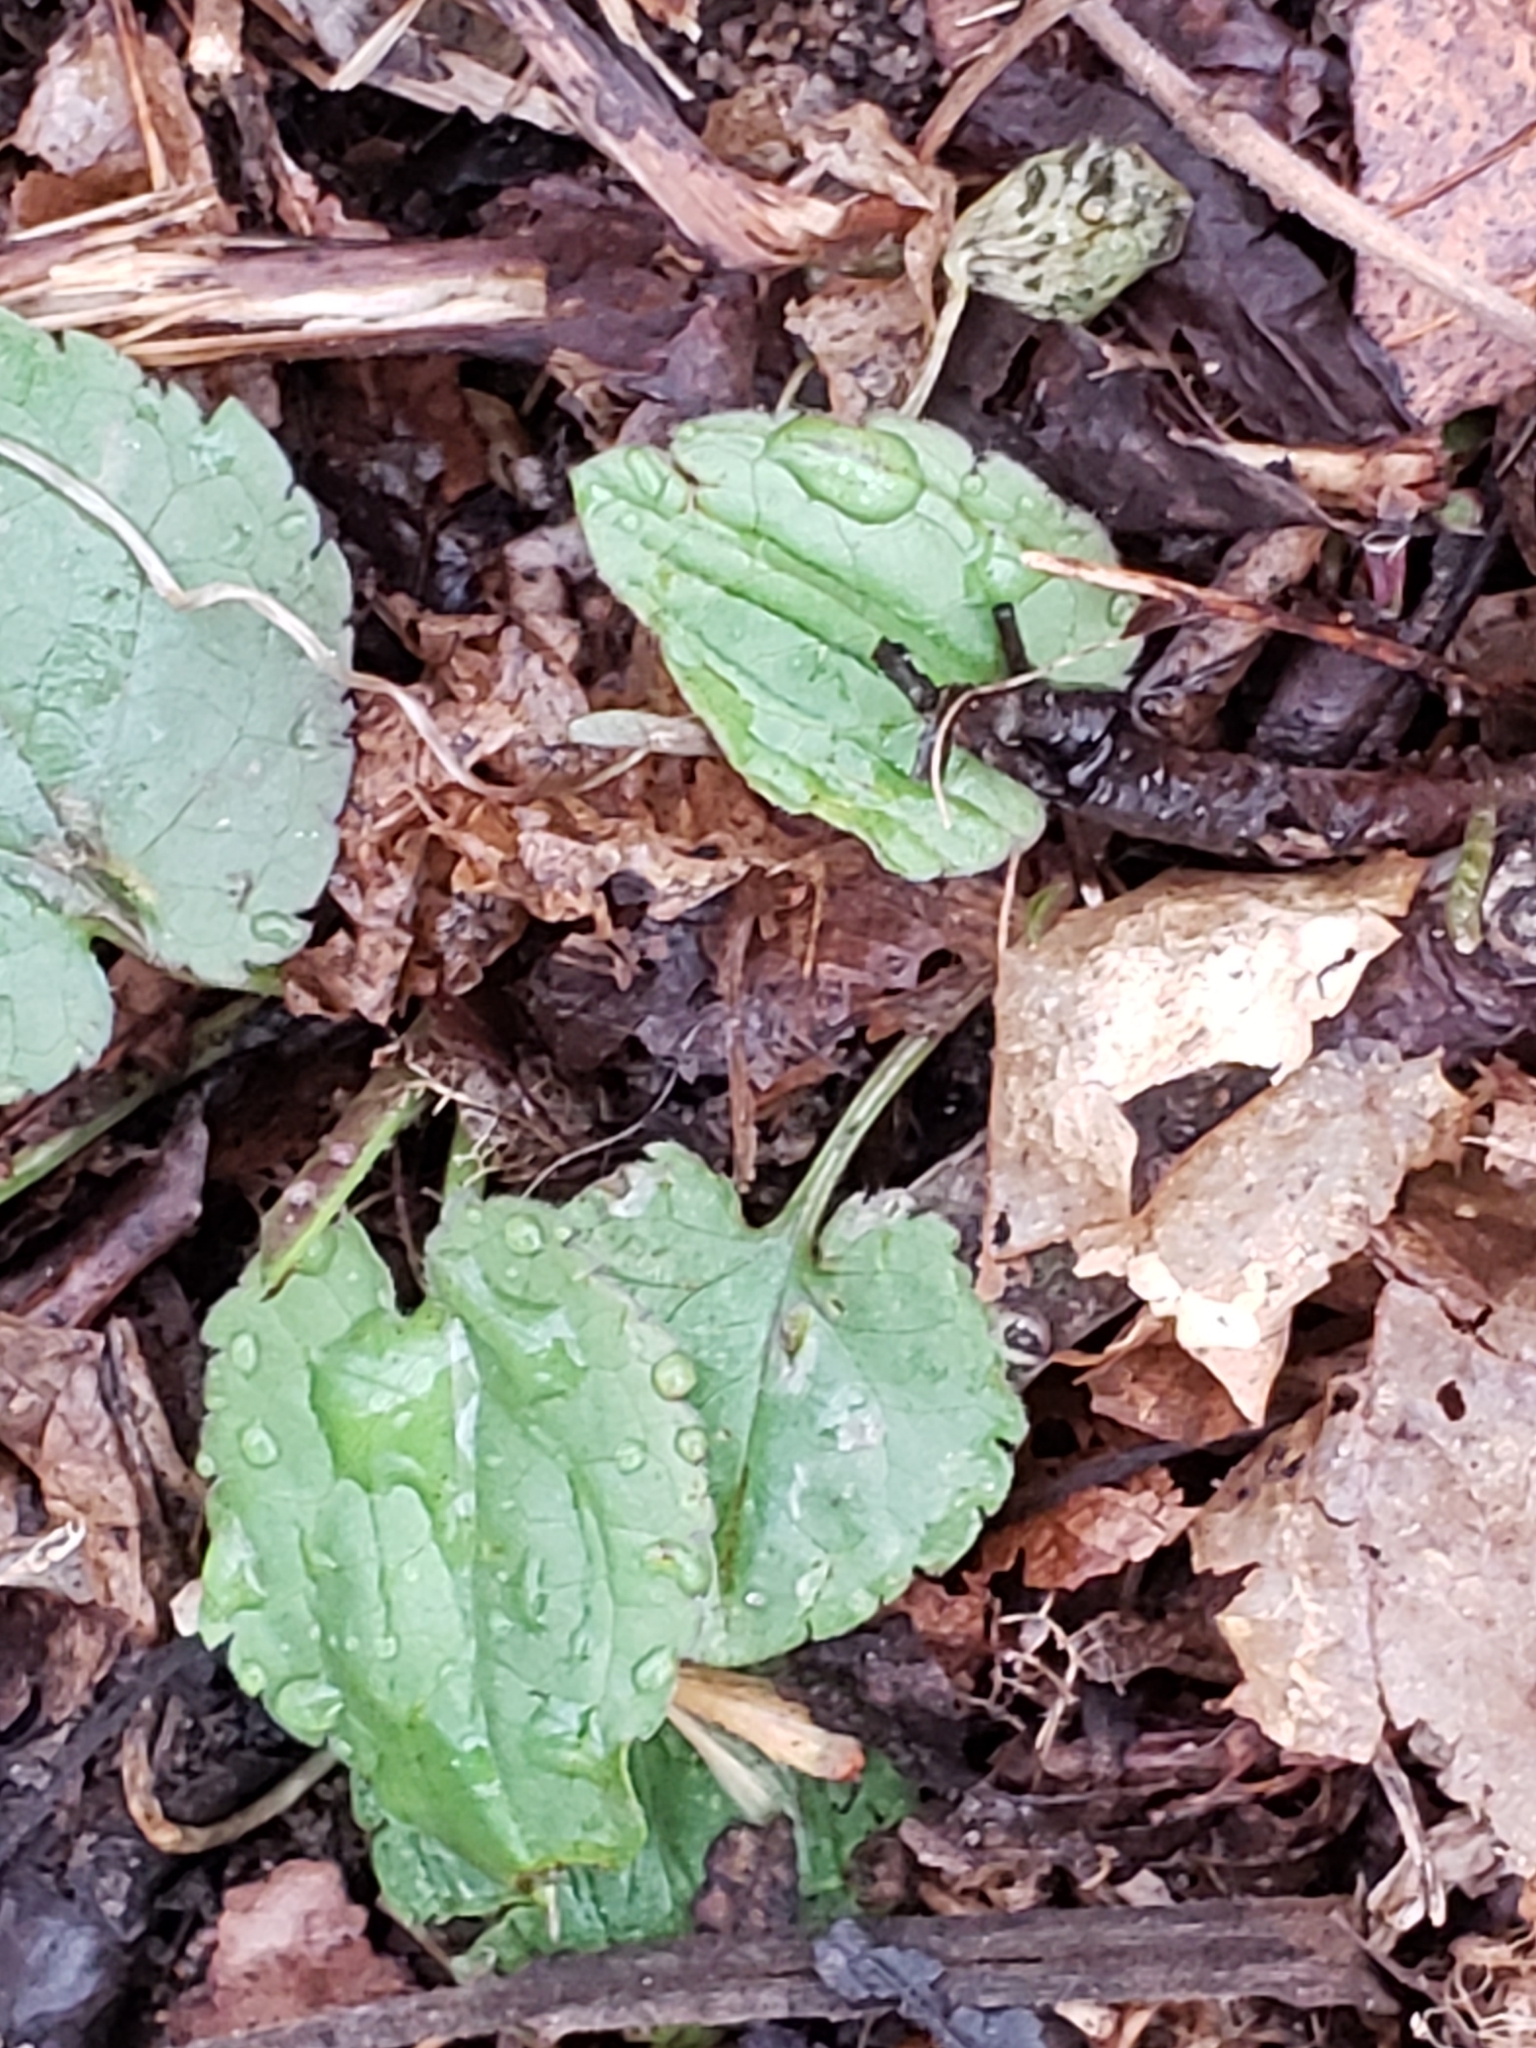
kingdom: Plantae
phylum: Tracheophyta
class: Magnoliopsida
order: Asterales
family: Asteraceae
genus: Eurybia
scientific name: Eurybia divaricata
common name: White wood aster
